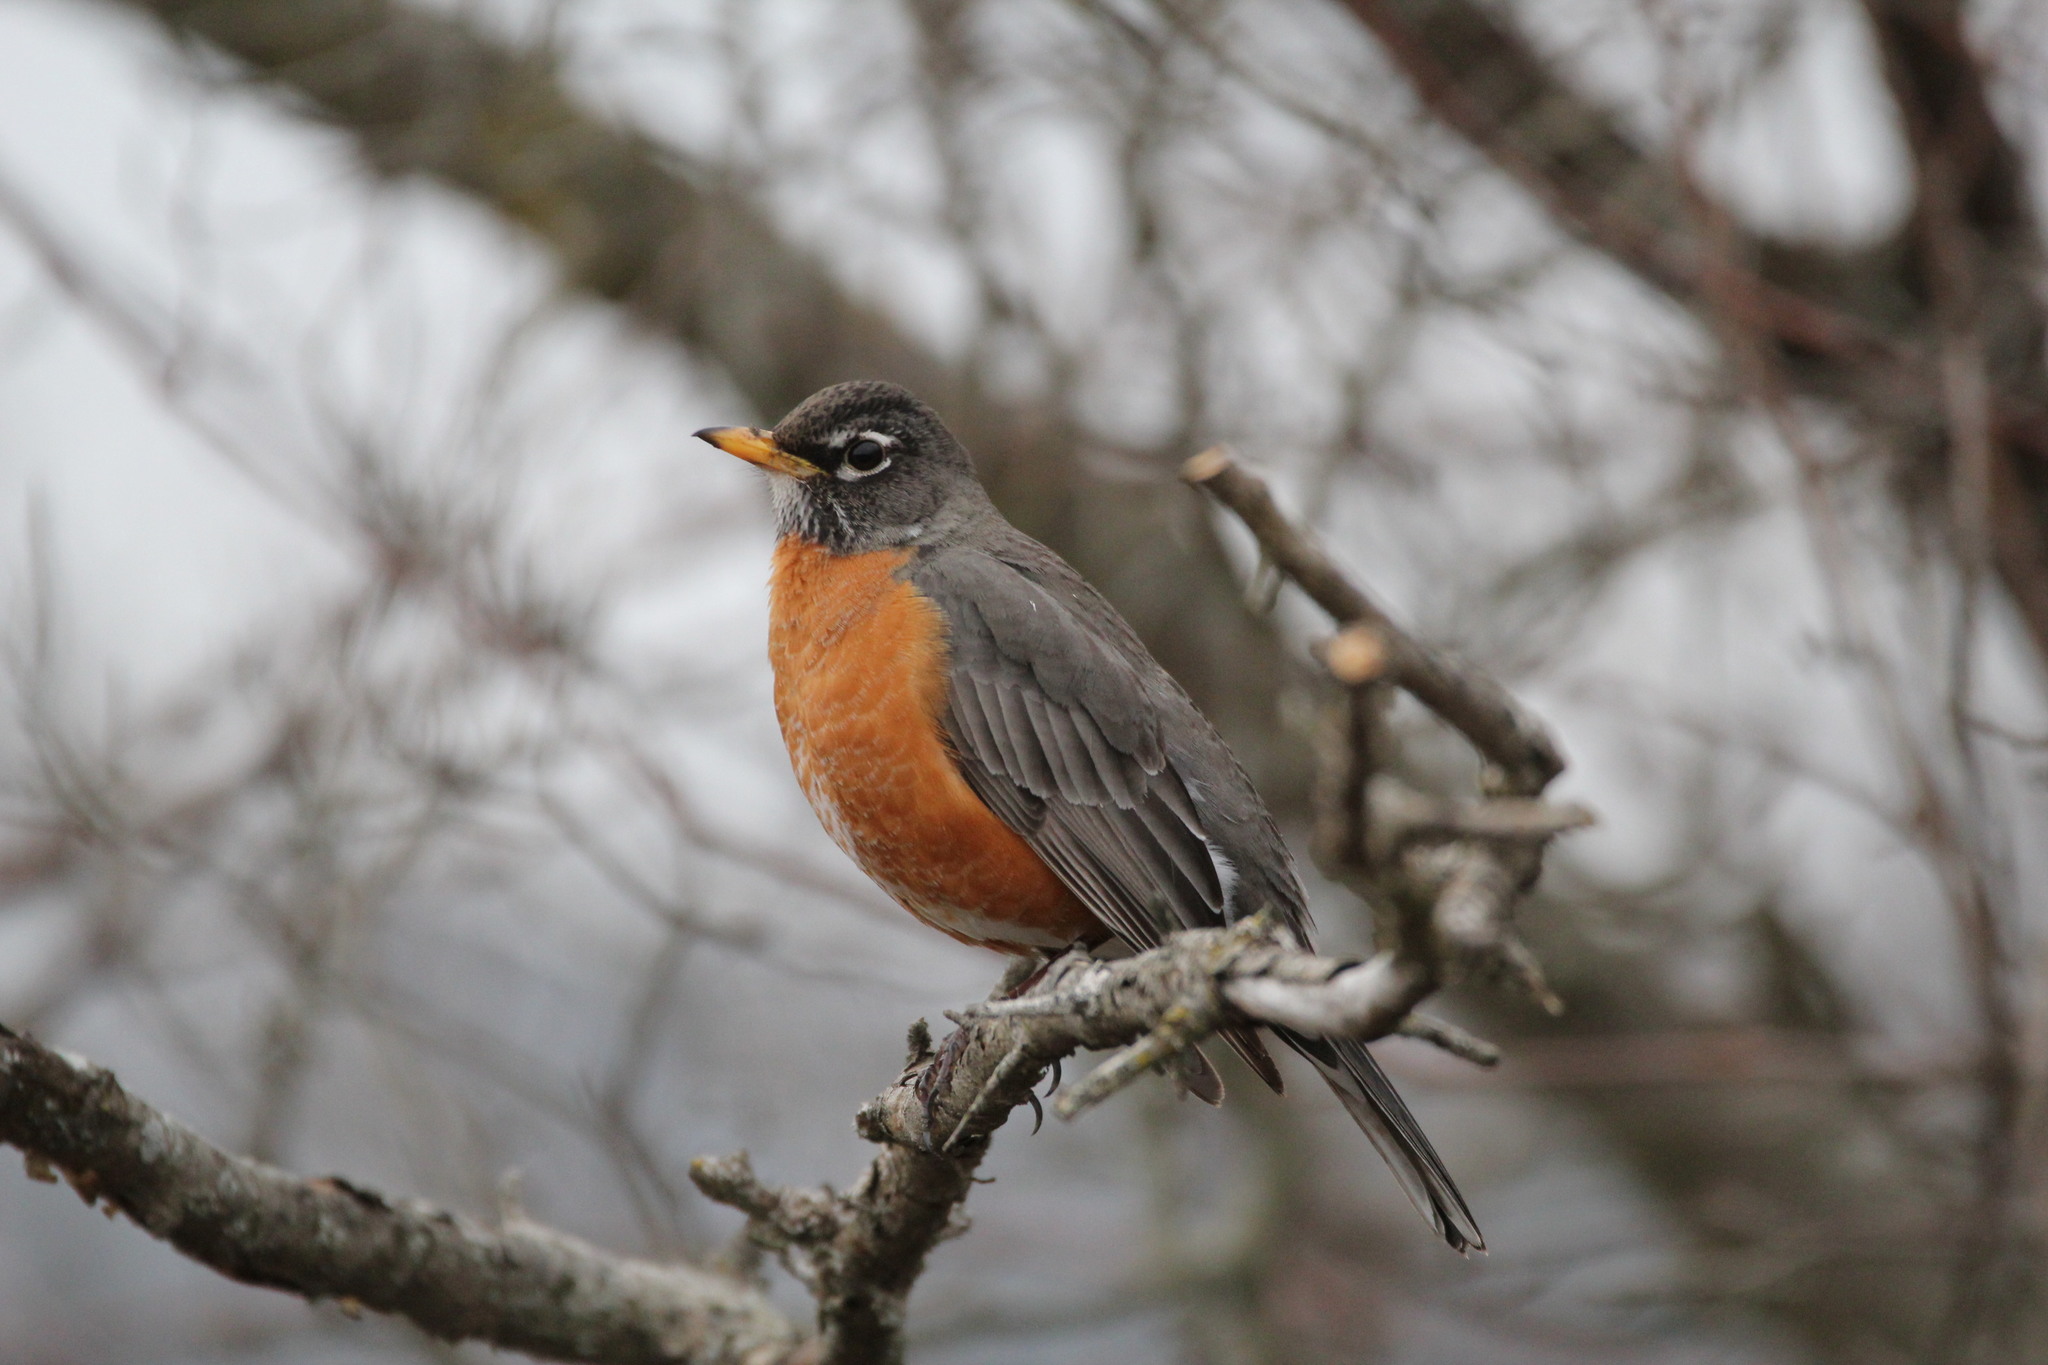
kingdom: Animalia
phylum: Chordata
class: Aves
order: Passeriformes
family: Turdidae
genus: Turdus
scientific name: Turdus migratorius
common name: American robin
